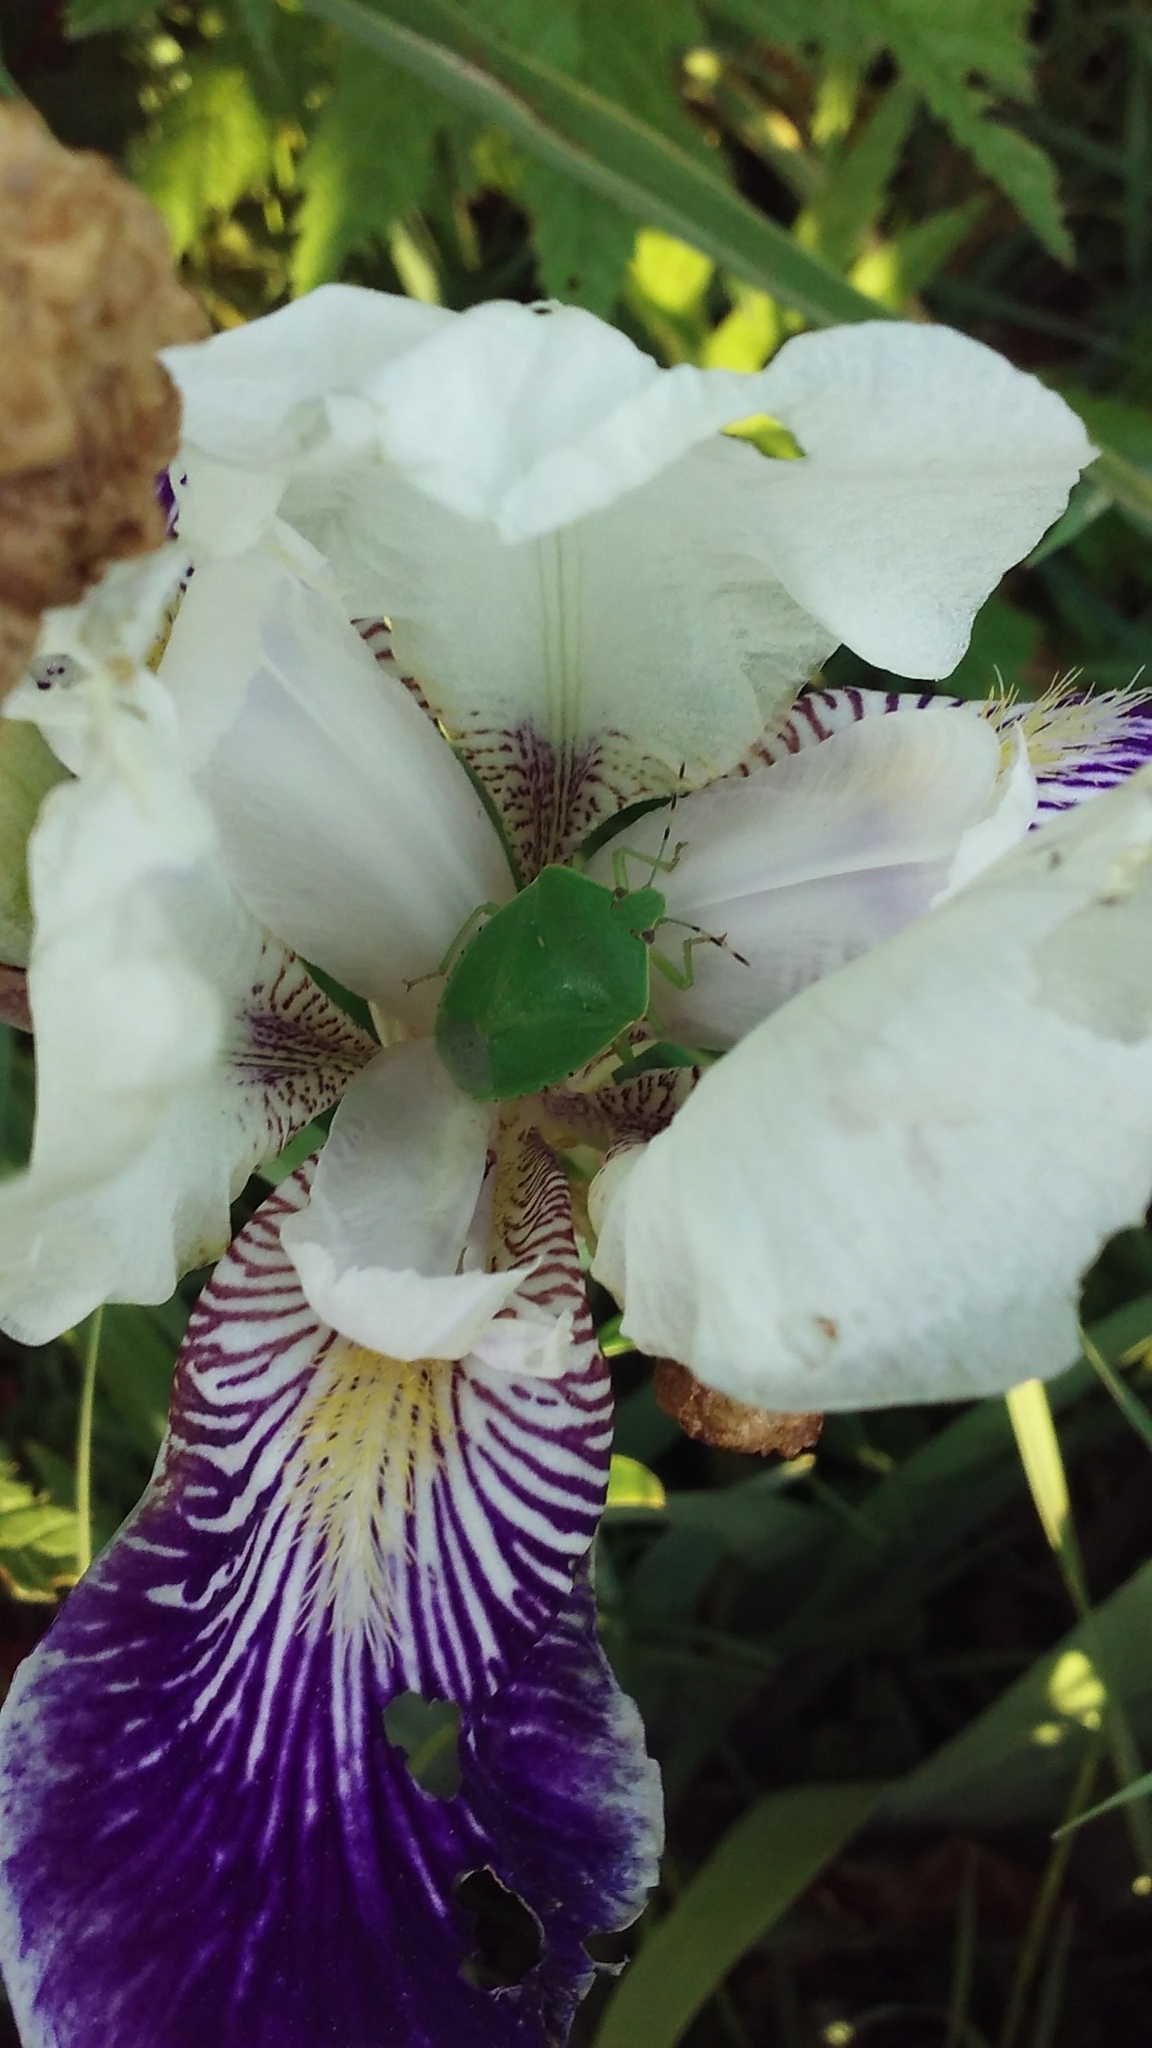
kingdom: Animalia
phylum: Arthropoda
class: Insecta
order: Hemiptera
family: Pentatomidae
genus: Chinavia
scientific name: Chinavia hilaris
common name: Green stink bug
